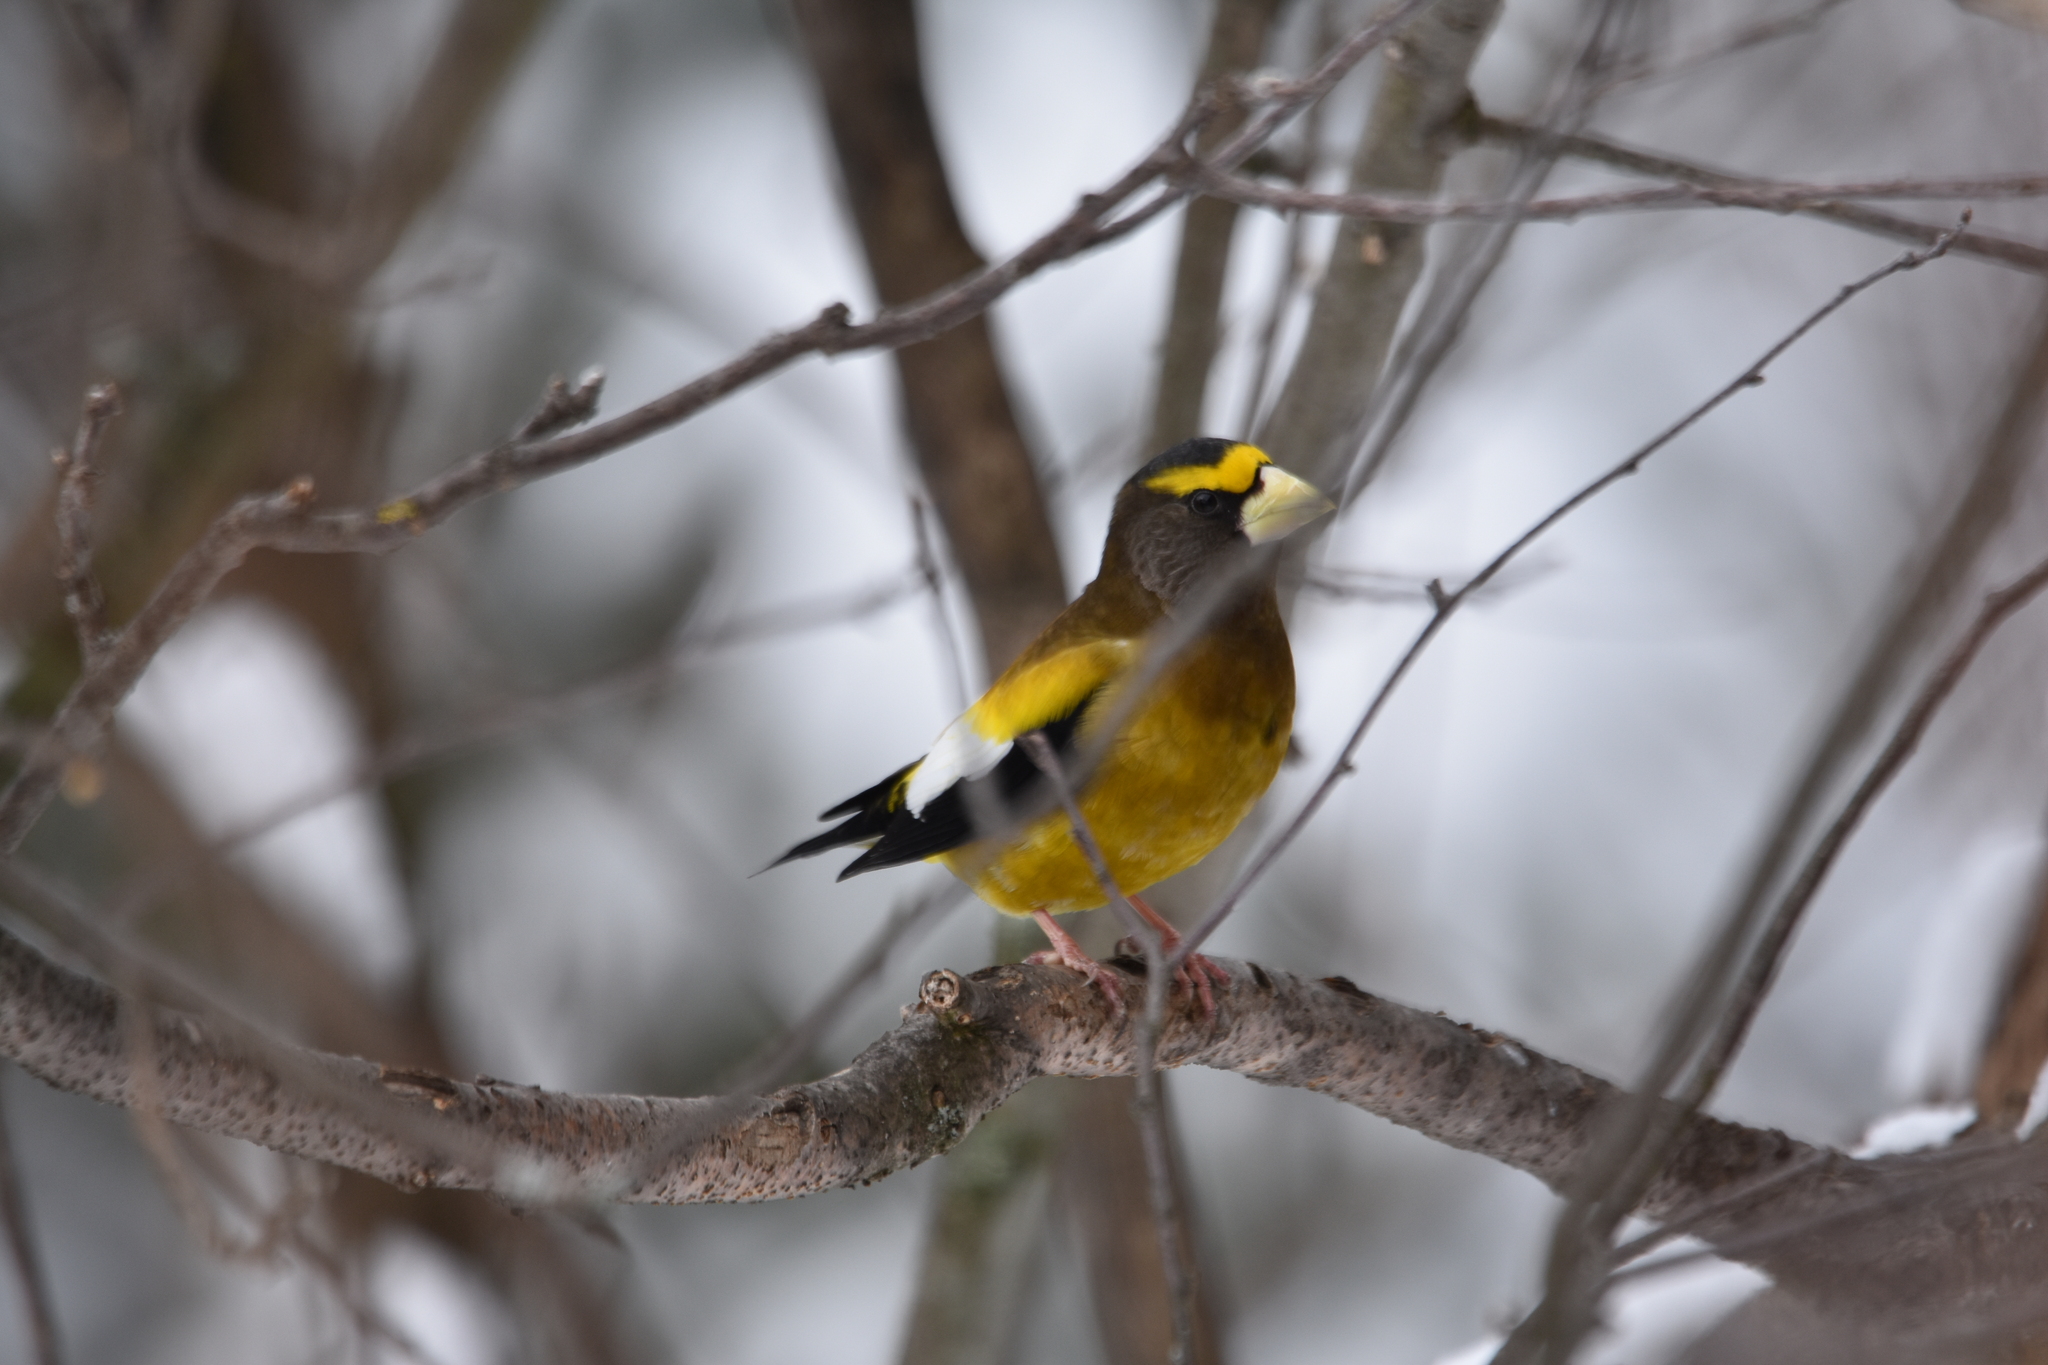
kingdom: Animalia
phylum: Chordata
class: Aves
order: Passeriformes
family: Fringillidae
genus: Hesperiphona
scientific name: Hesperiphona vespertina
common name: Evening grosbeak
